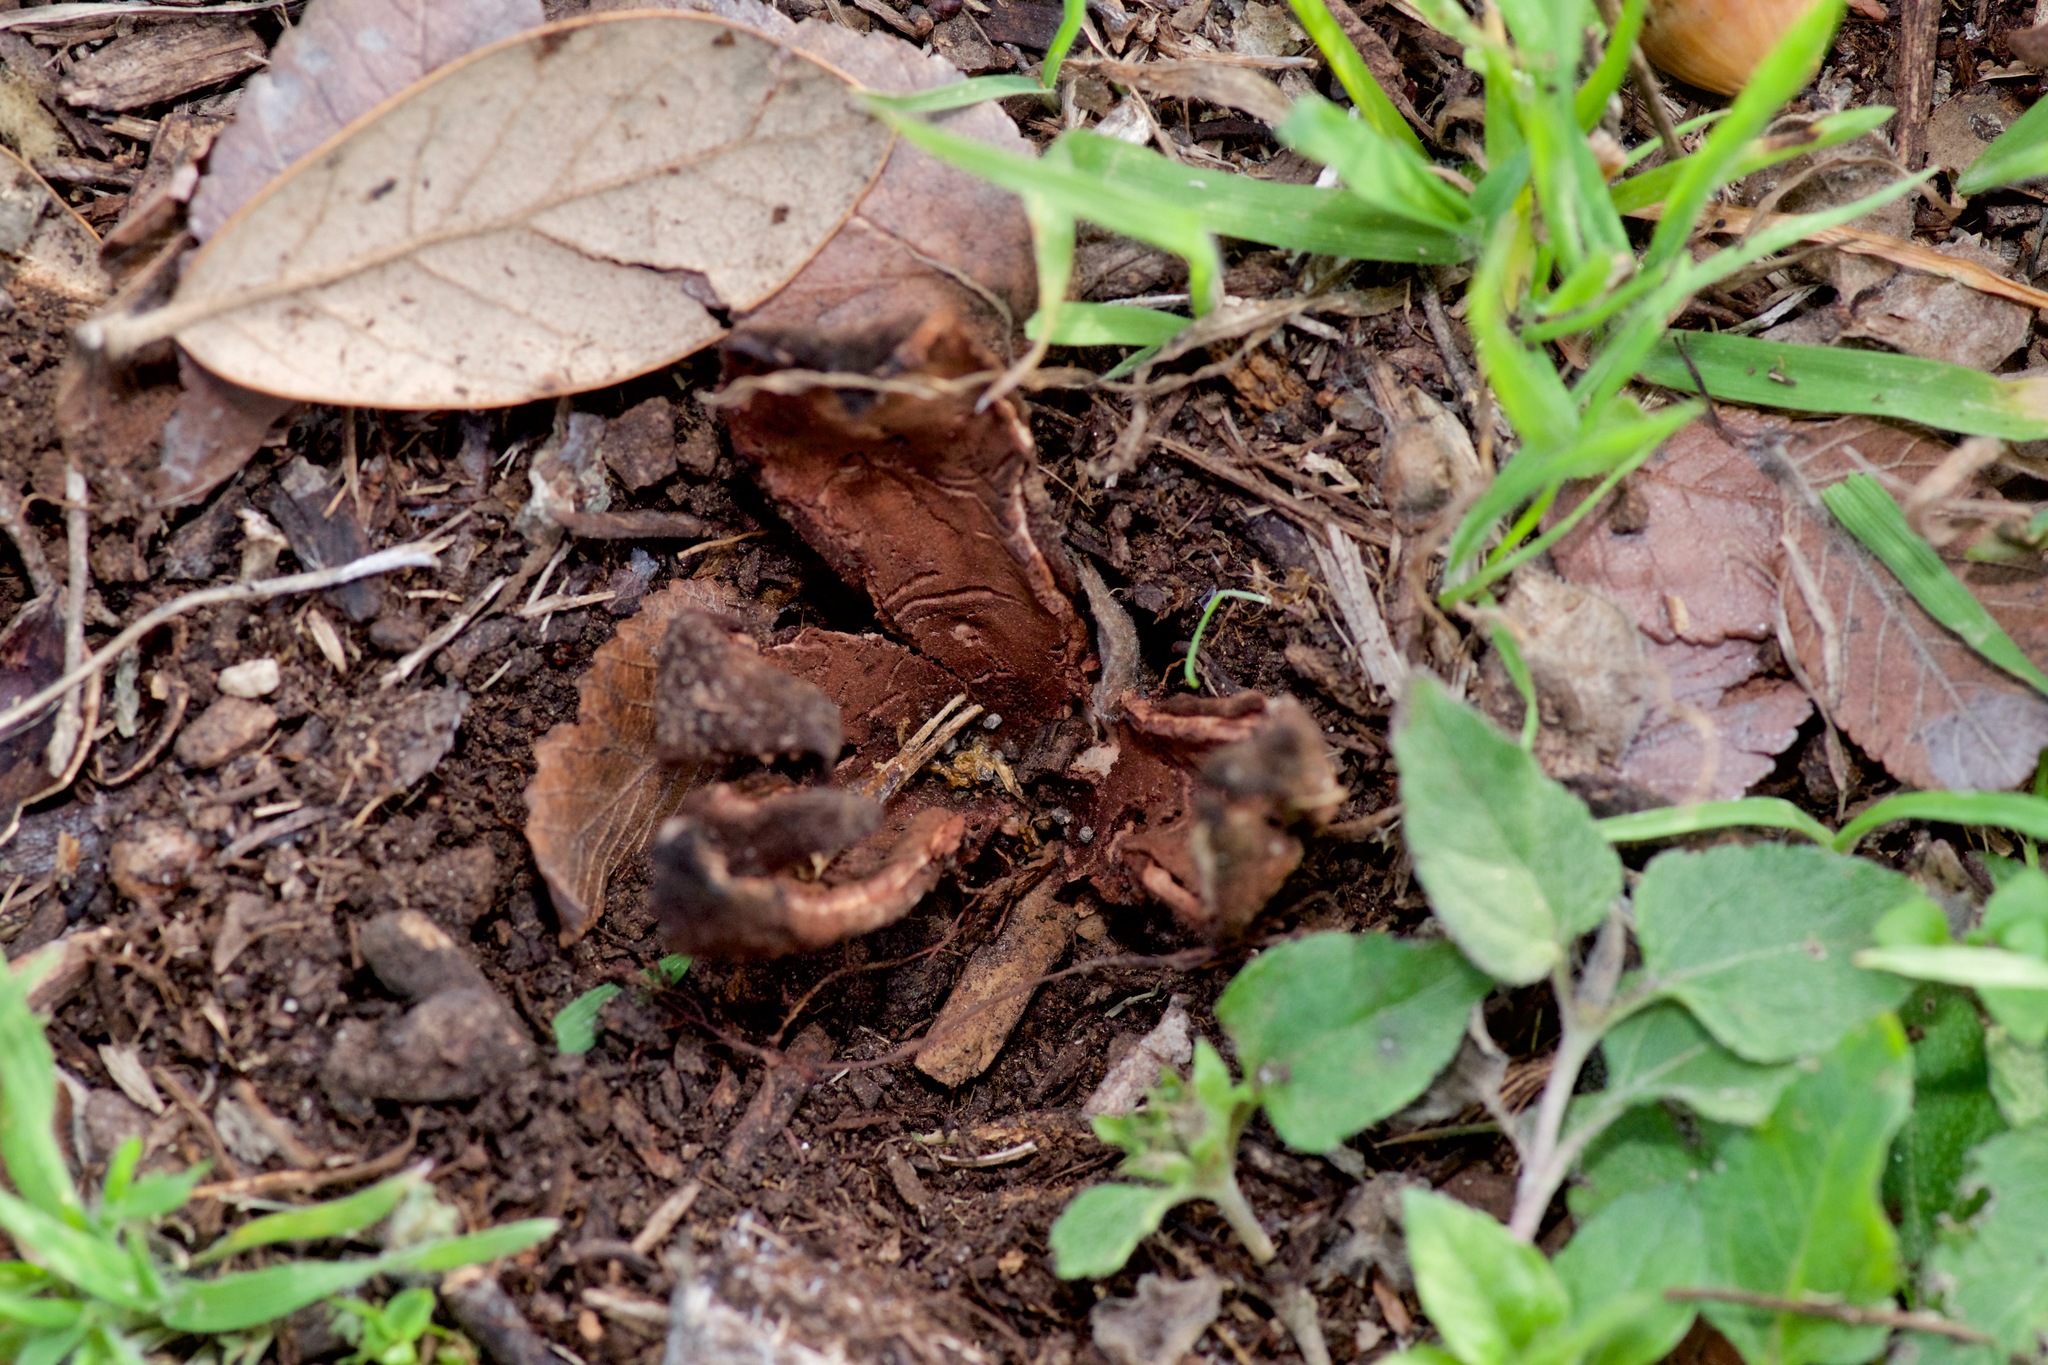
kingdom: Fungi
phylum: Ascomycota
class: Pezizomycetes
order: Pezizales
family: Chorioactidaceae
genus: Chorioactis
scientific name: Chorioactis geaster
